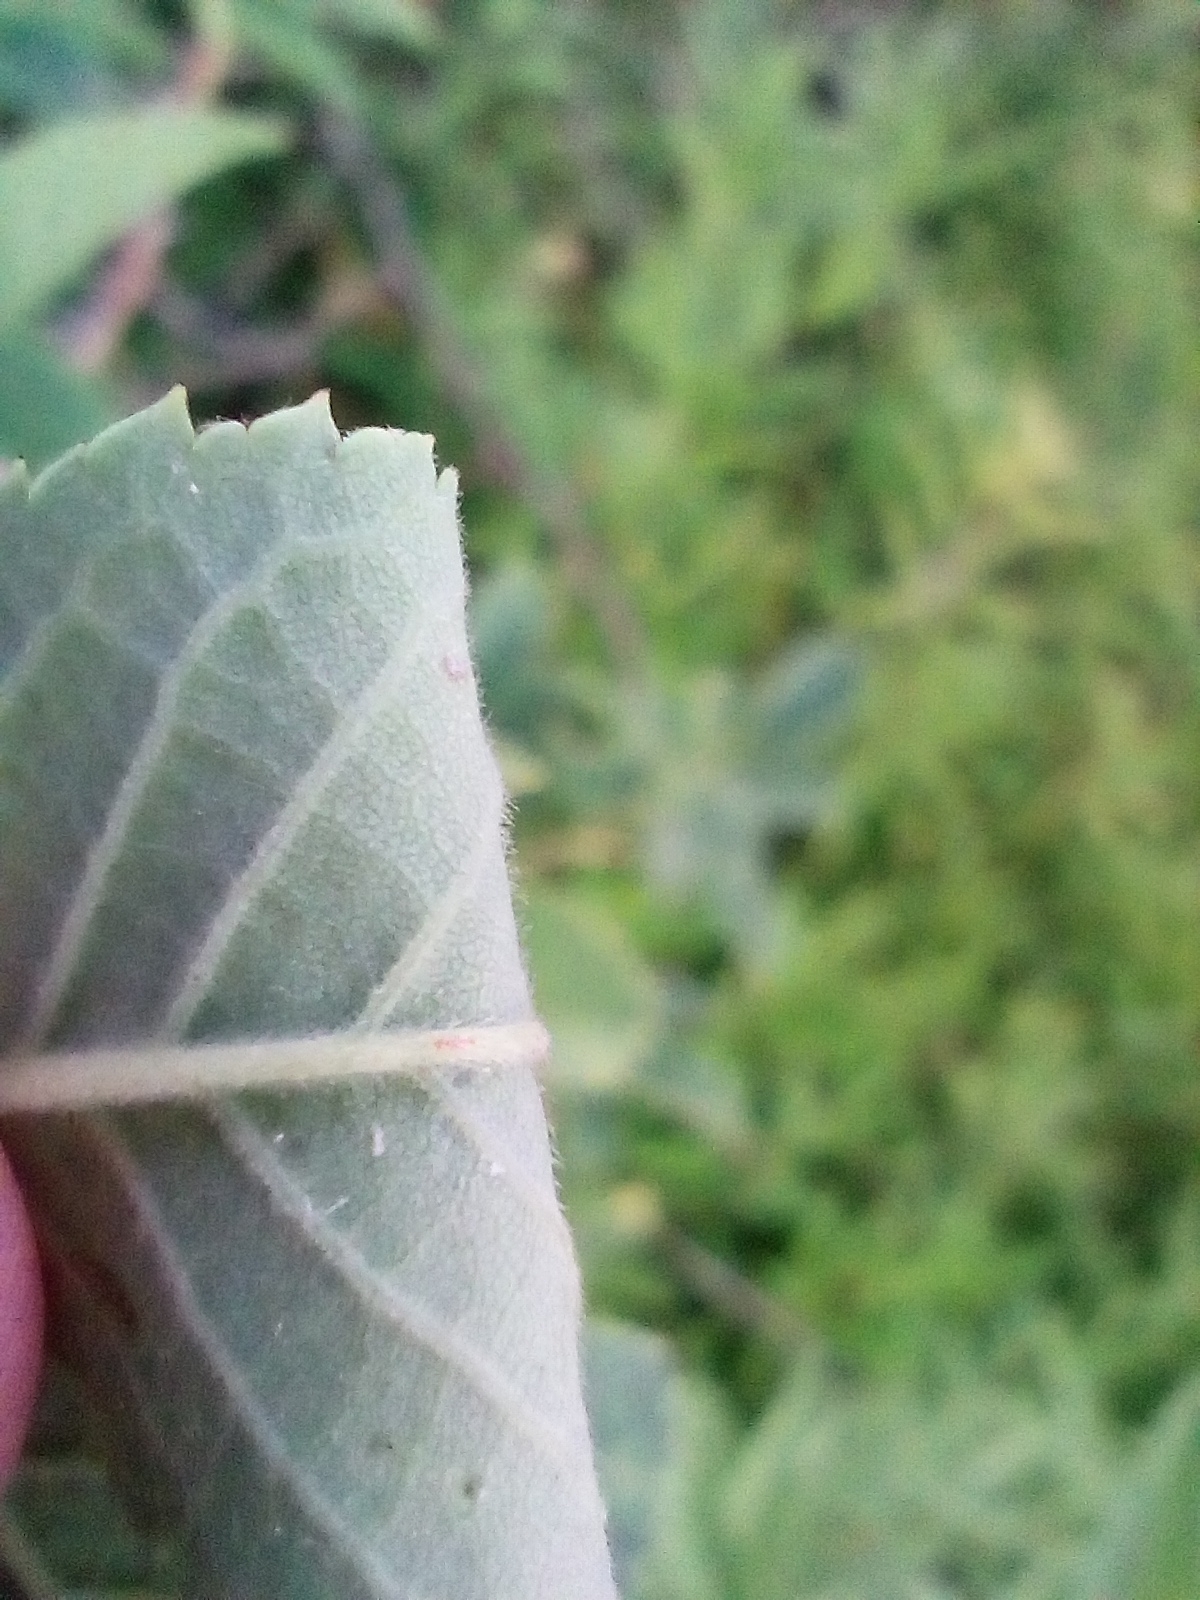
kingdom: Plantae
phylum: Tracheophyta
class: Magnoliopsida
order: Rosales
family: Rosaceae
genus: Rosa
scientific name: Rosa subcollina
